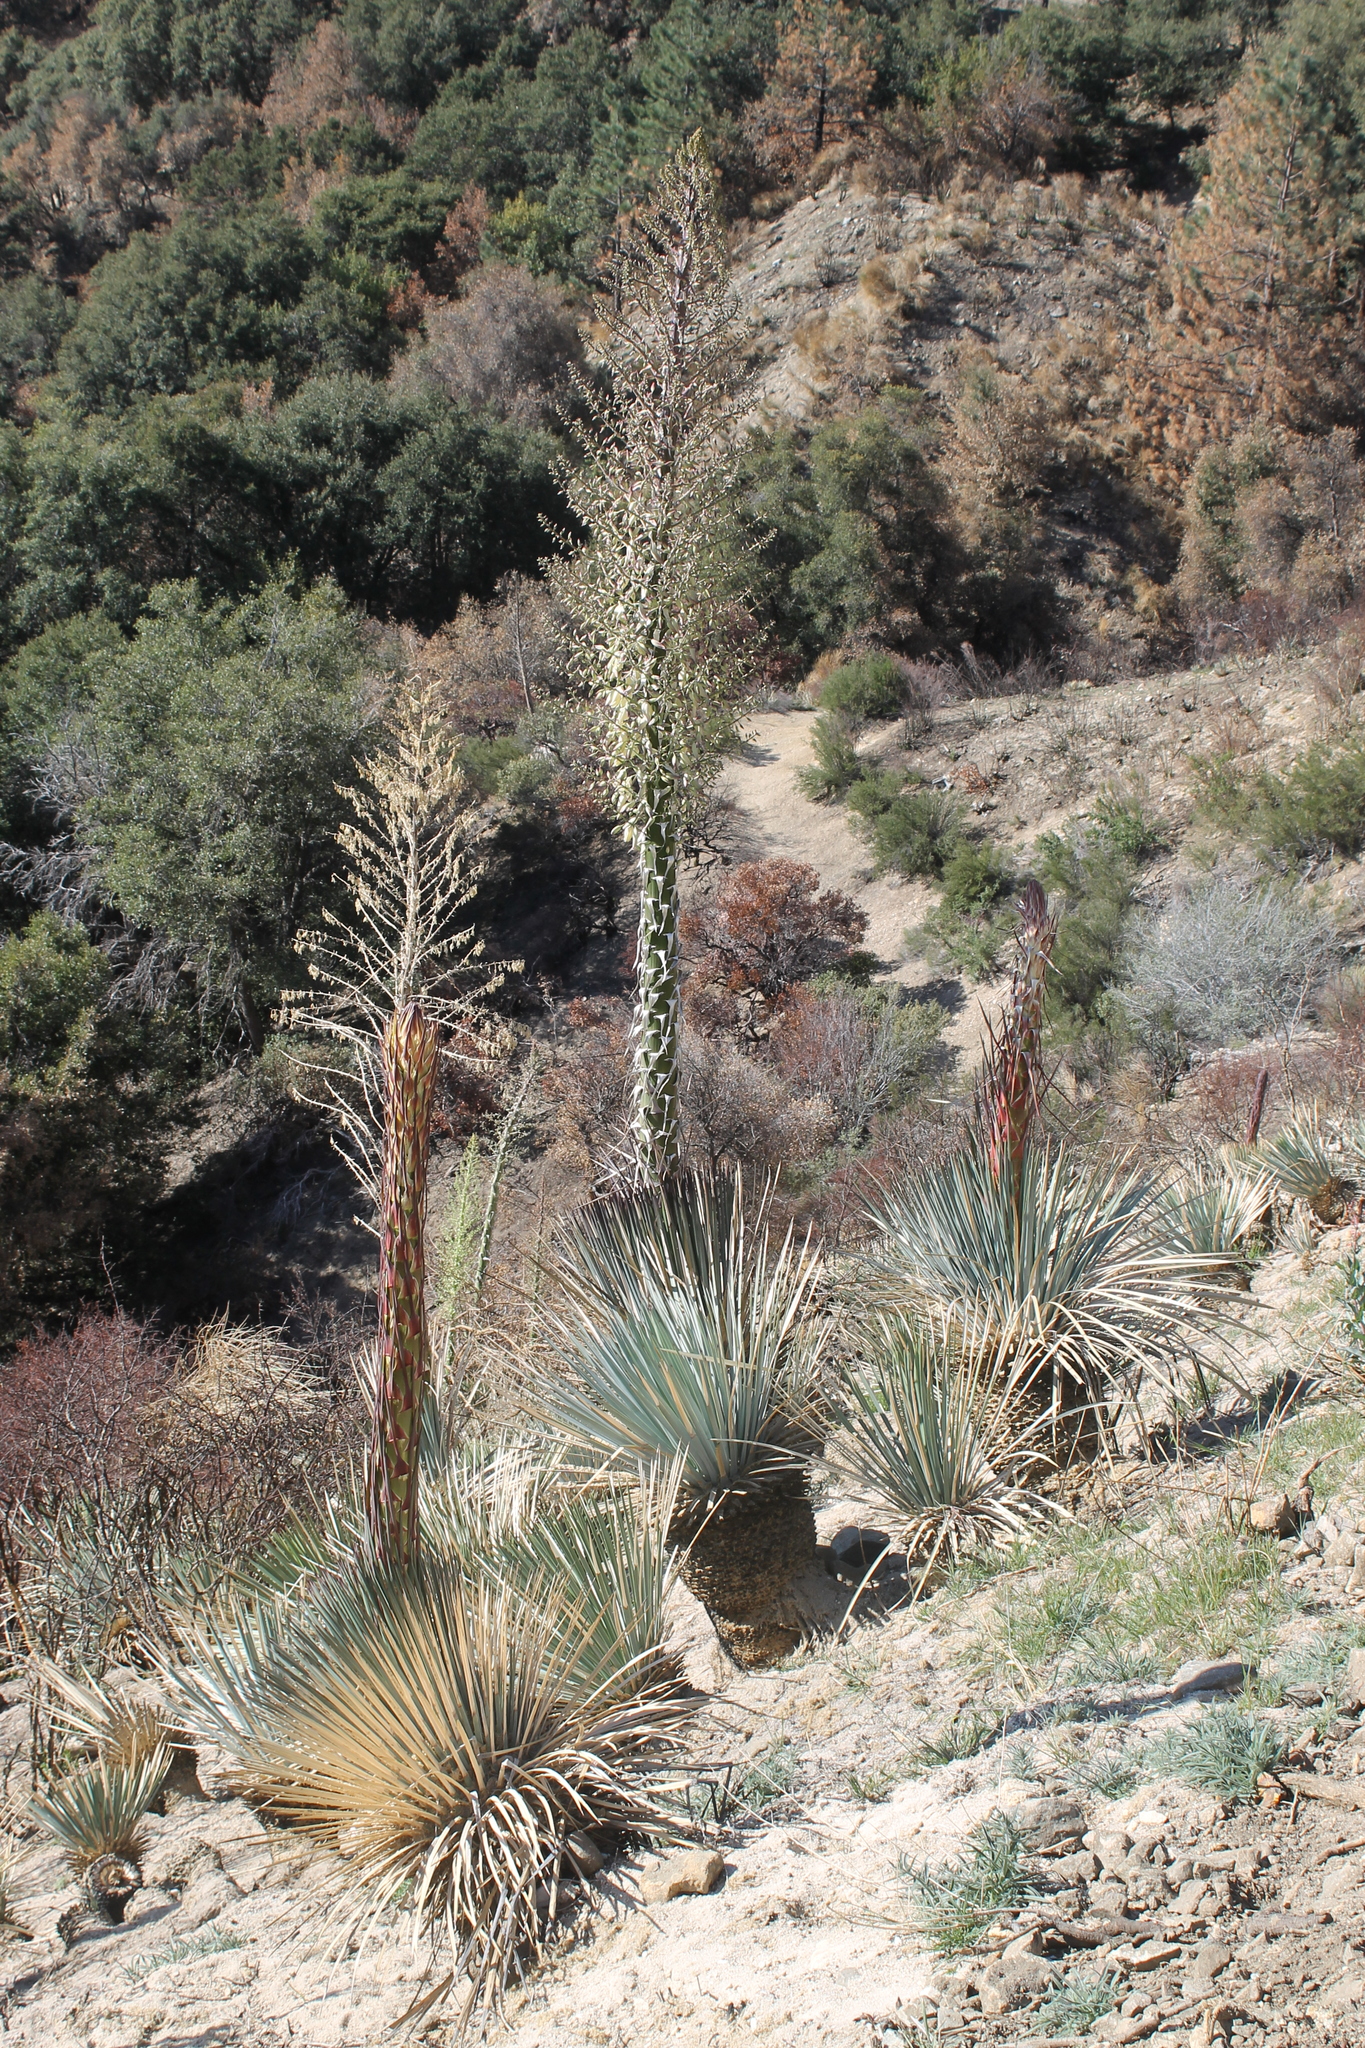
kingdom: Plantae
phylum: Tracheophyta
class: Liliopsida
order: Asparagales
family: Asparagaceae
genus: Hesperoyucca
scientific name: Hesperoyucca whipplei
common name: Our lord's-candle
